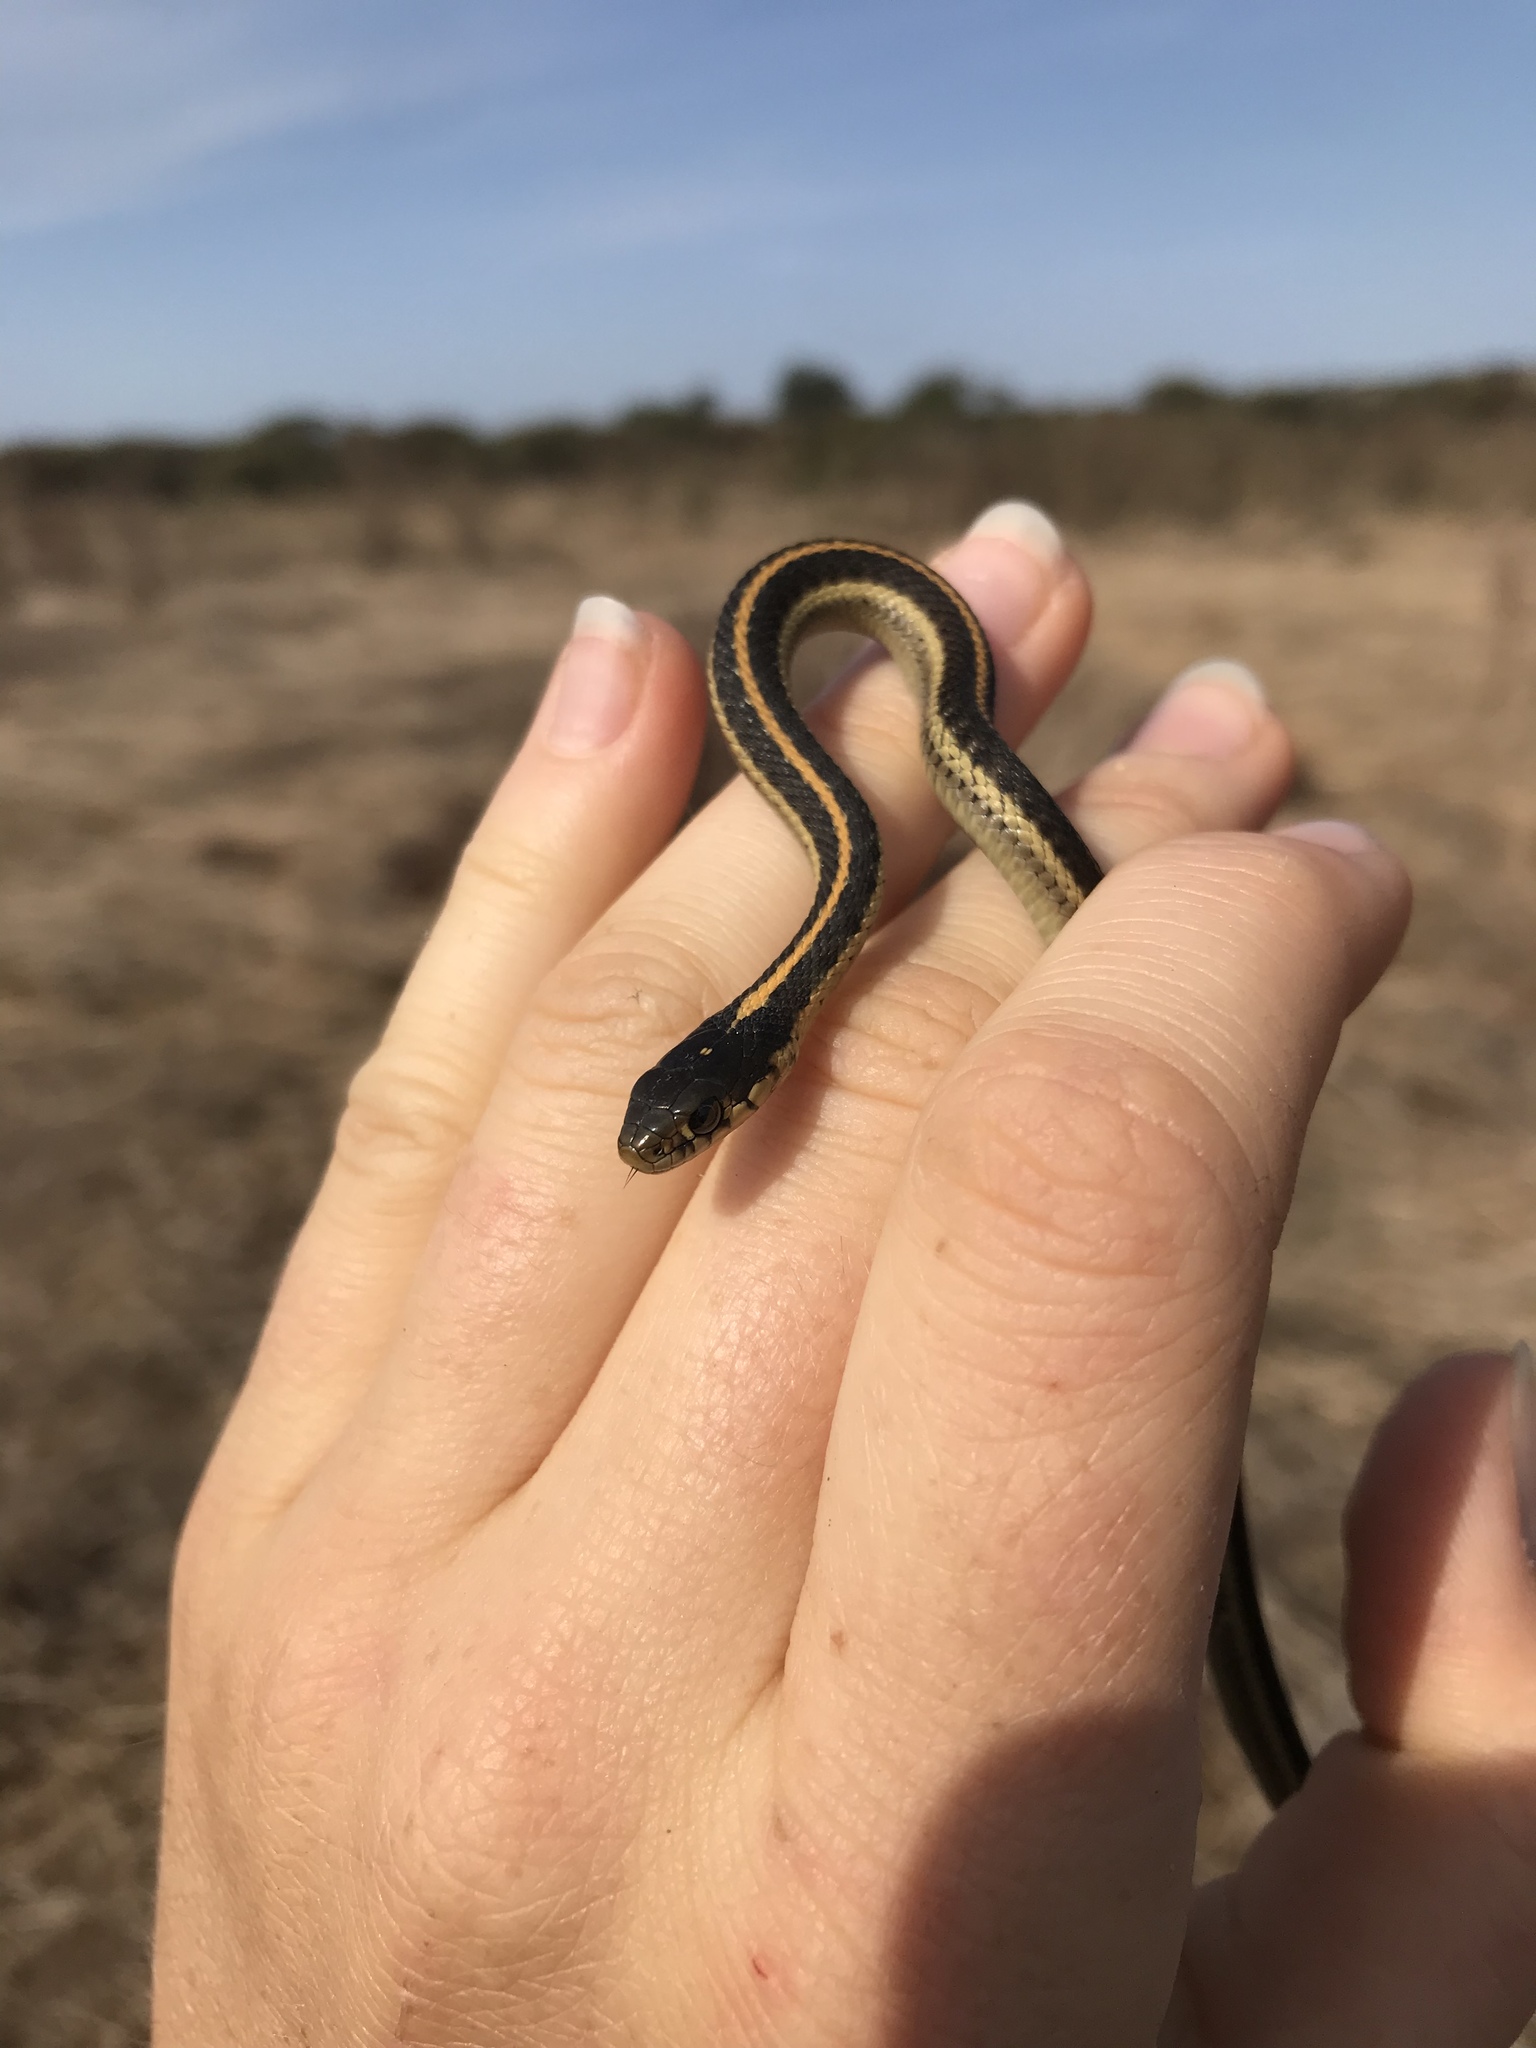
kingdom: Animalia
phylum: Chordata
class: Squamata
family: Colubridae
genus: Thamnophis
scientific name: Thamnophis elegans
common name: Western terrestrial garter snake
